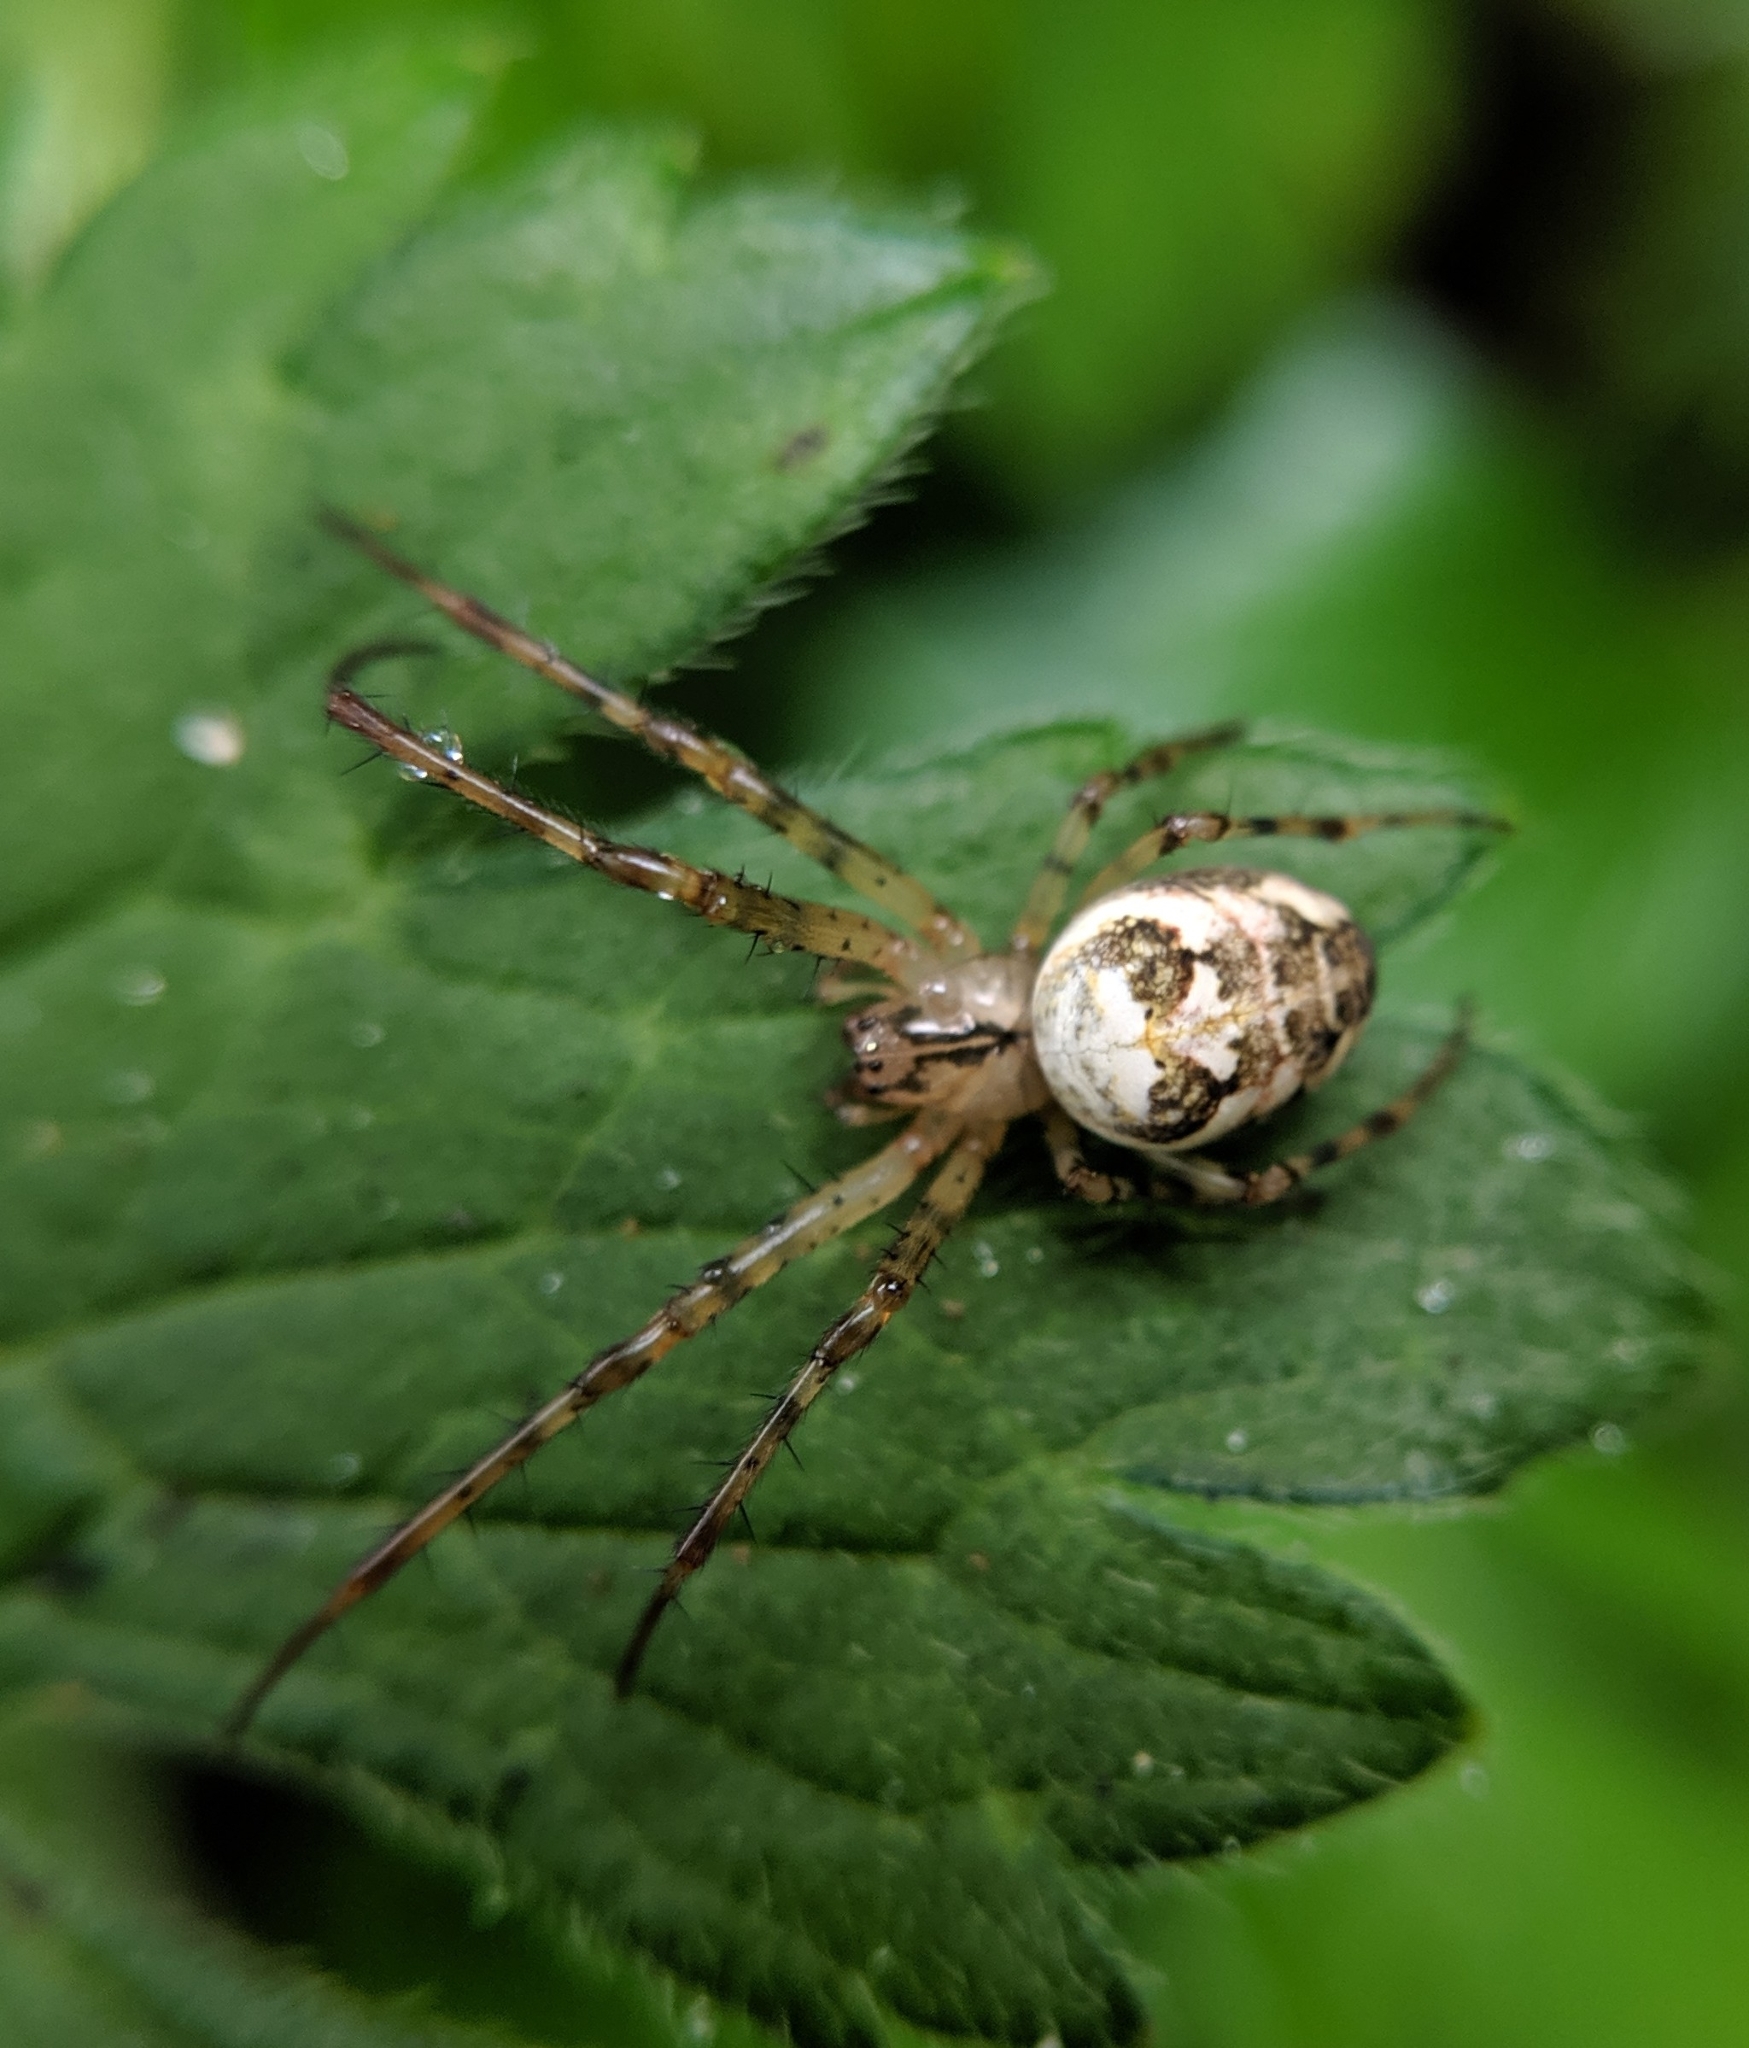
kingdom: Animalia
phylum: Arthropoda
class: Arachnida
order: Araneae
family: Tetragnathidae
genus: Metellina
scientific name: Metellina segmentata
